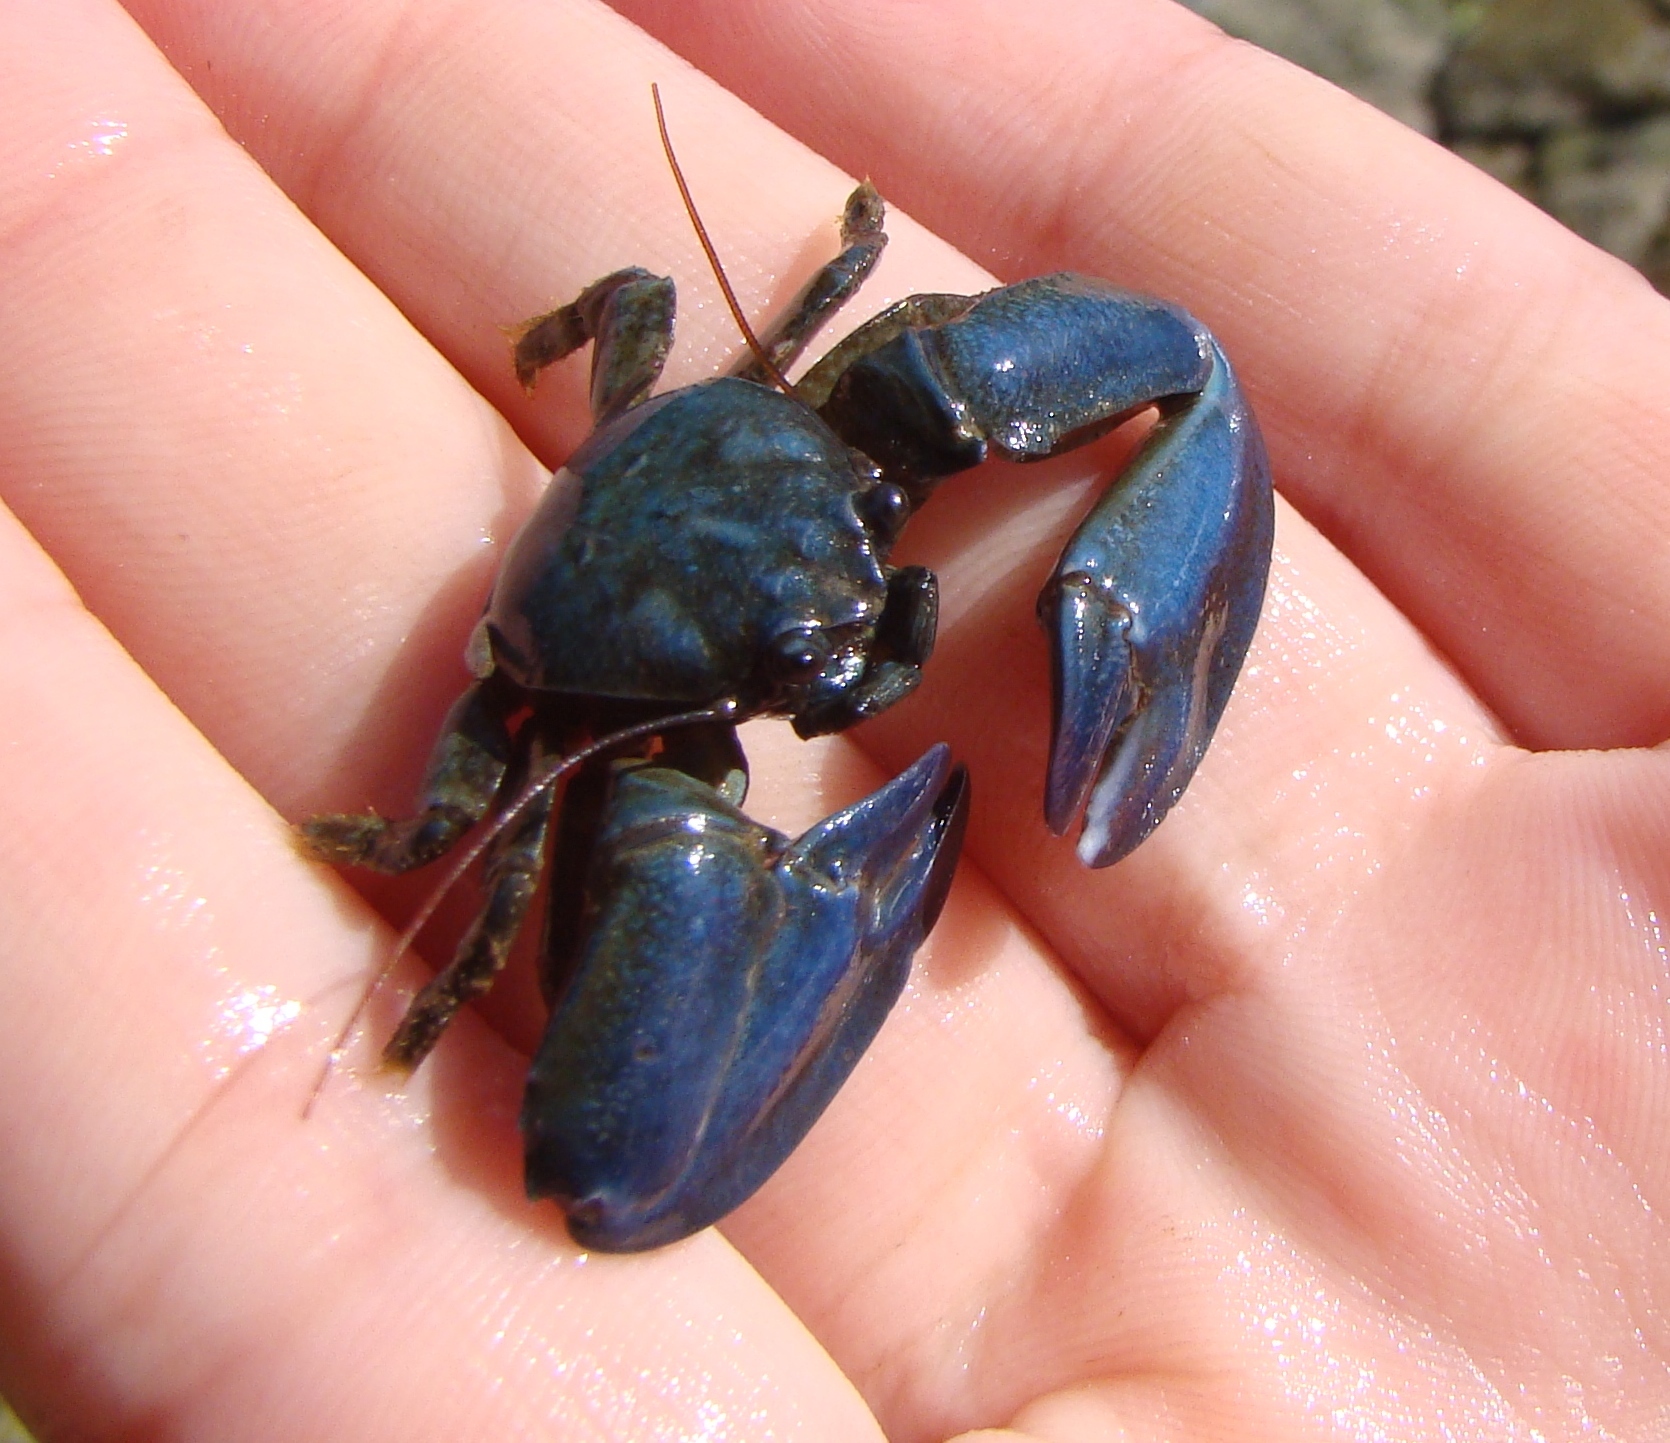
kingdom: Animalia
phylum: Arthropoda
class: Malacostraca
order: Decapoda
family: Porcellanidae
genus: Petrolisthes
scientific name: Petrolisthes elongatus
